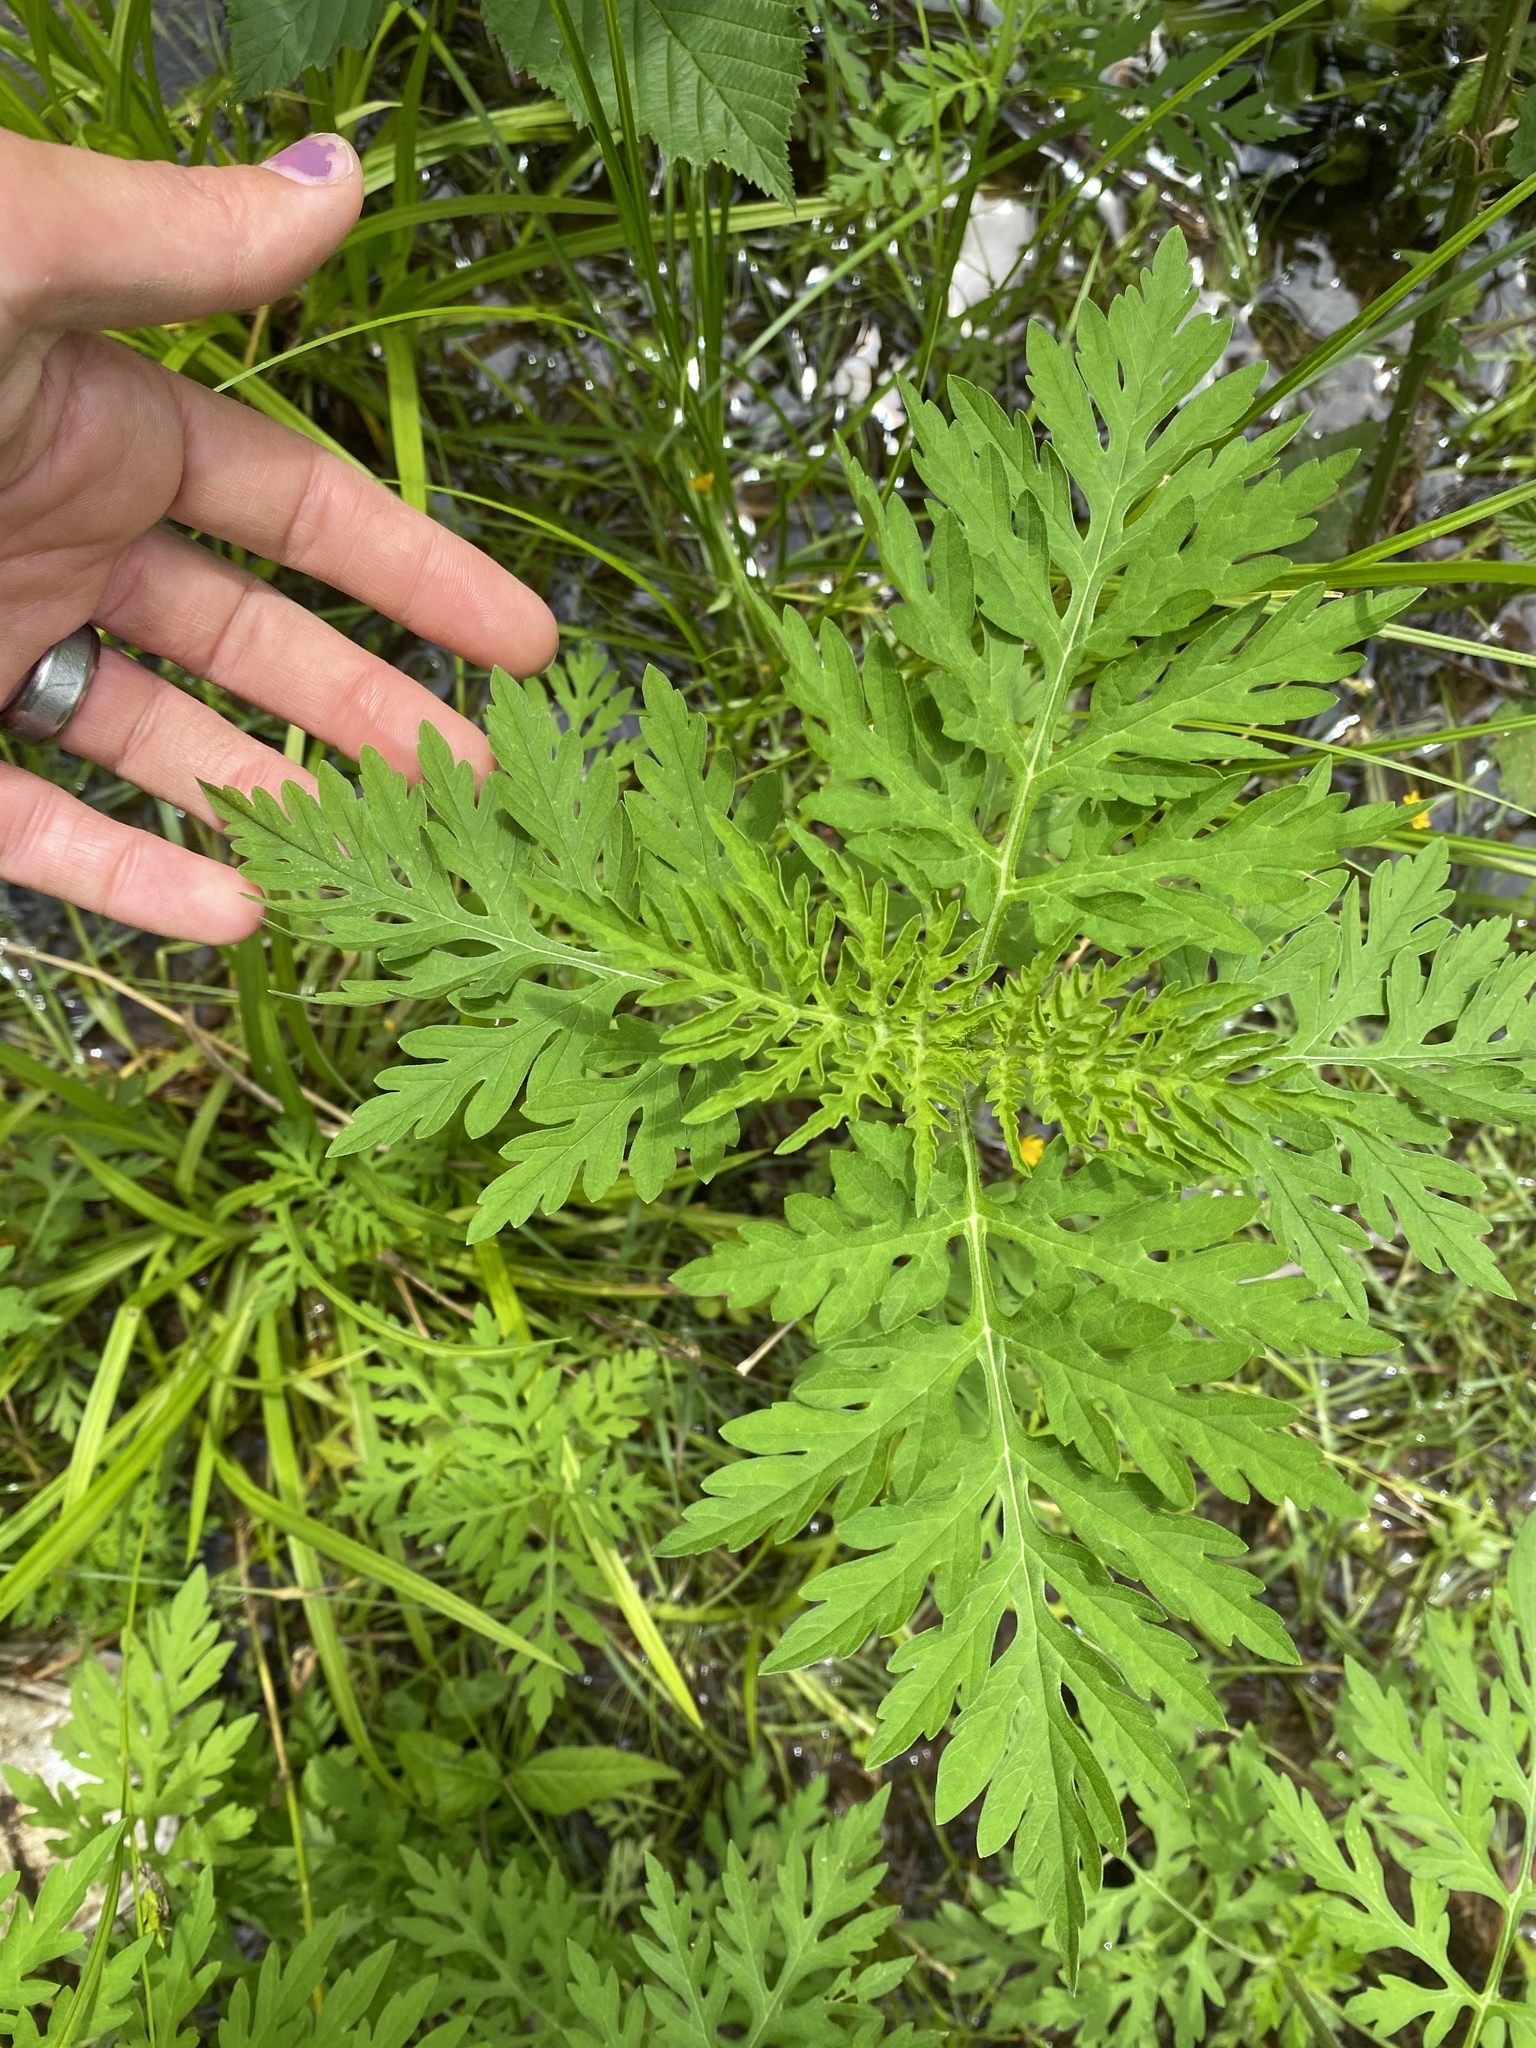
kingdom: Plantae
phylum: Tracheophyta
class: Magnoliopsida
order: Asterales
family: Asteraceae
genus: Ambrosia
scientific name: Ambrosia artemisiifolia
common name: Annual ragweed
